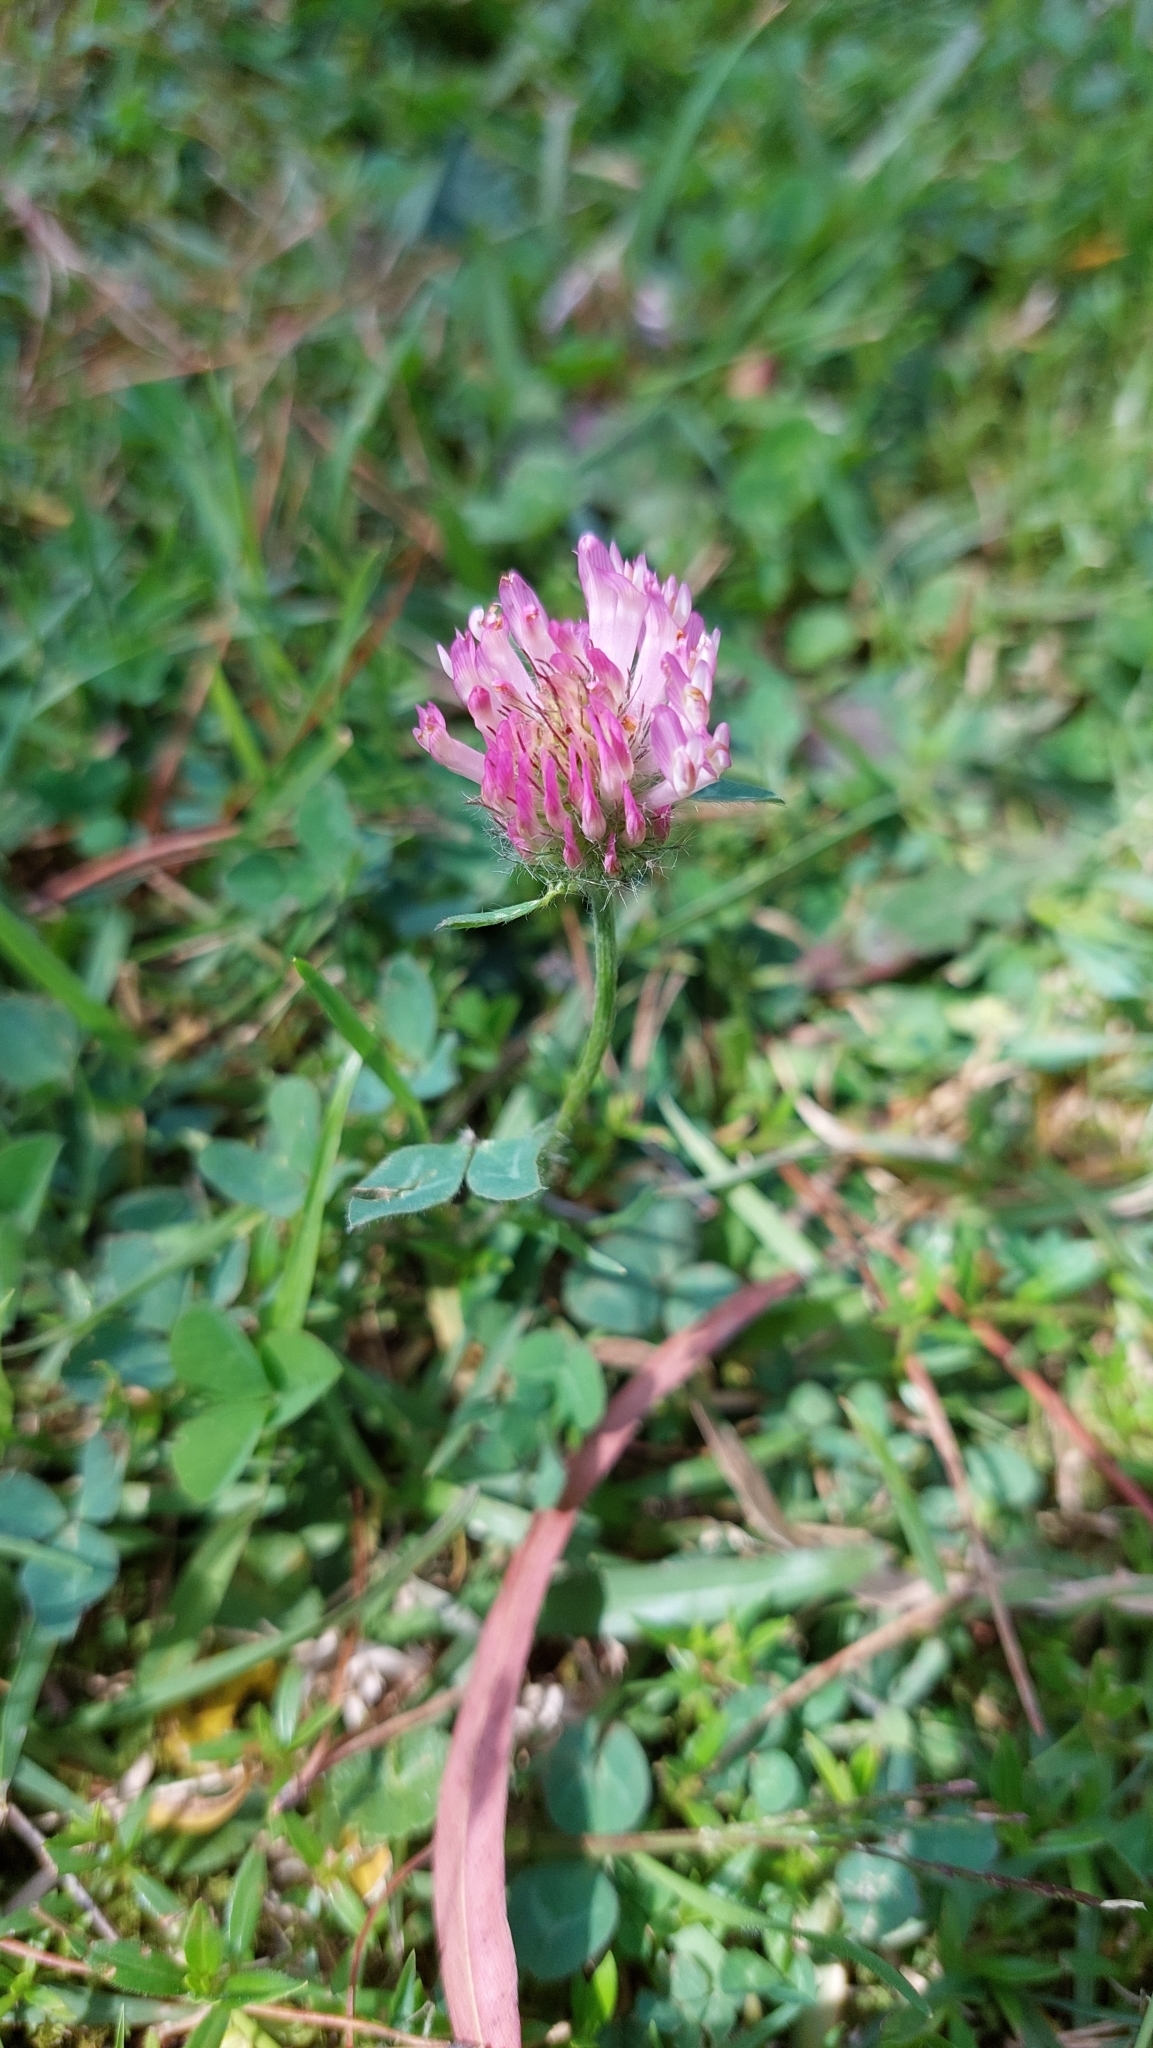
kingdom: Plantae
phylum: Tracheophyta
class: Magnoliopsida
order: Fabales
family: Fabaceae
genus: Trifolium
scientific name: Trifolium pratense
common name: Red clover
